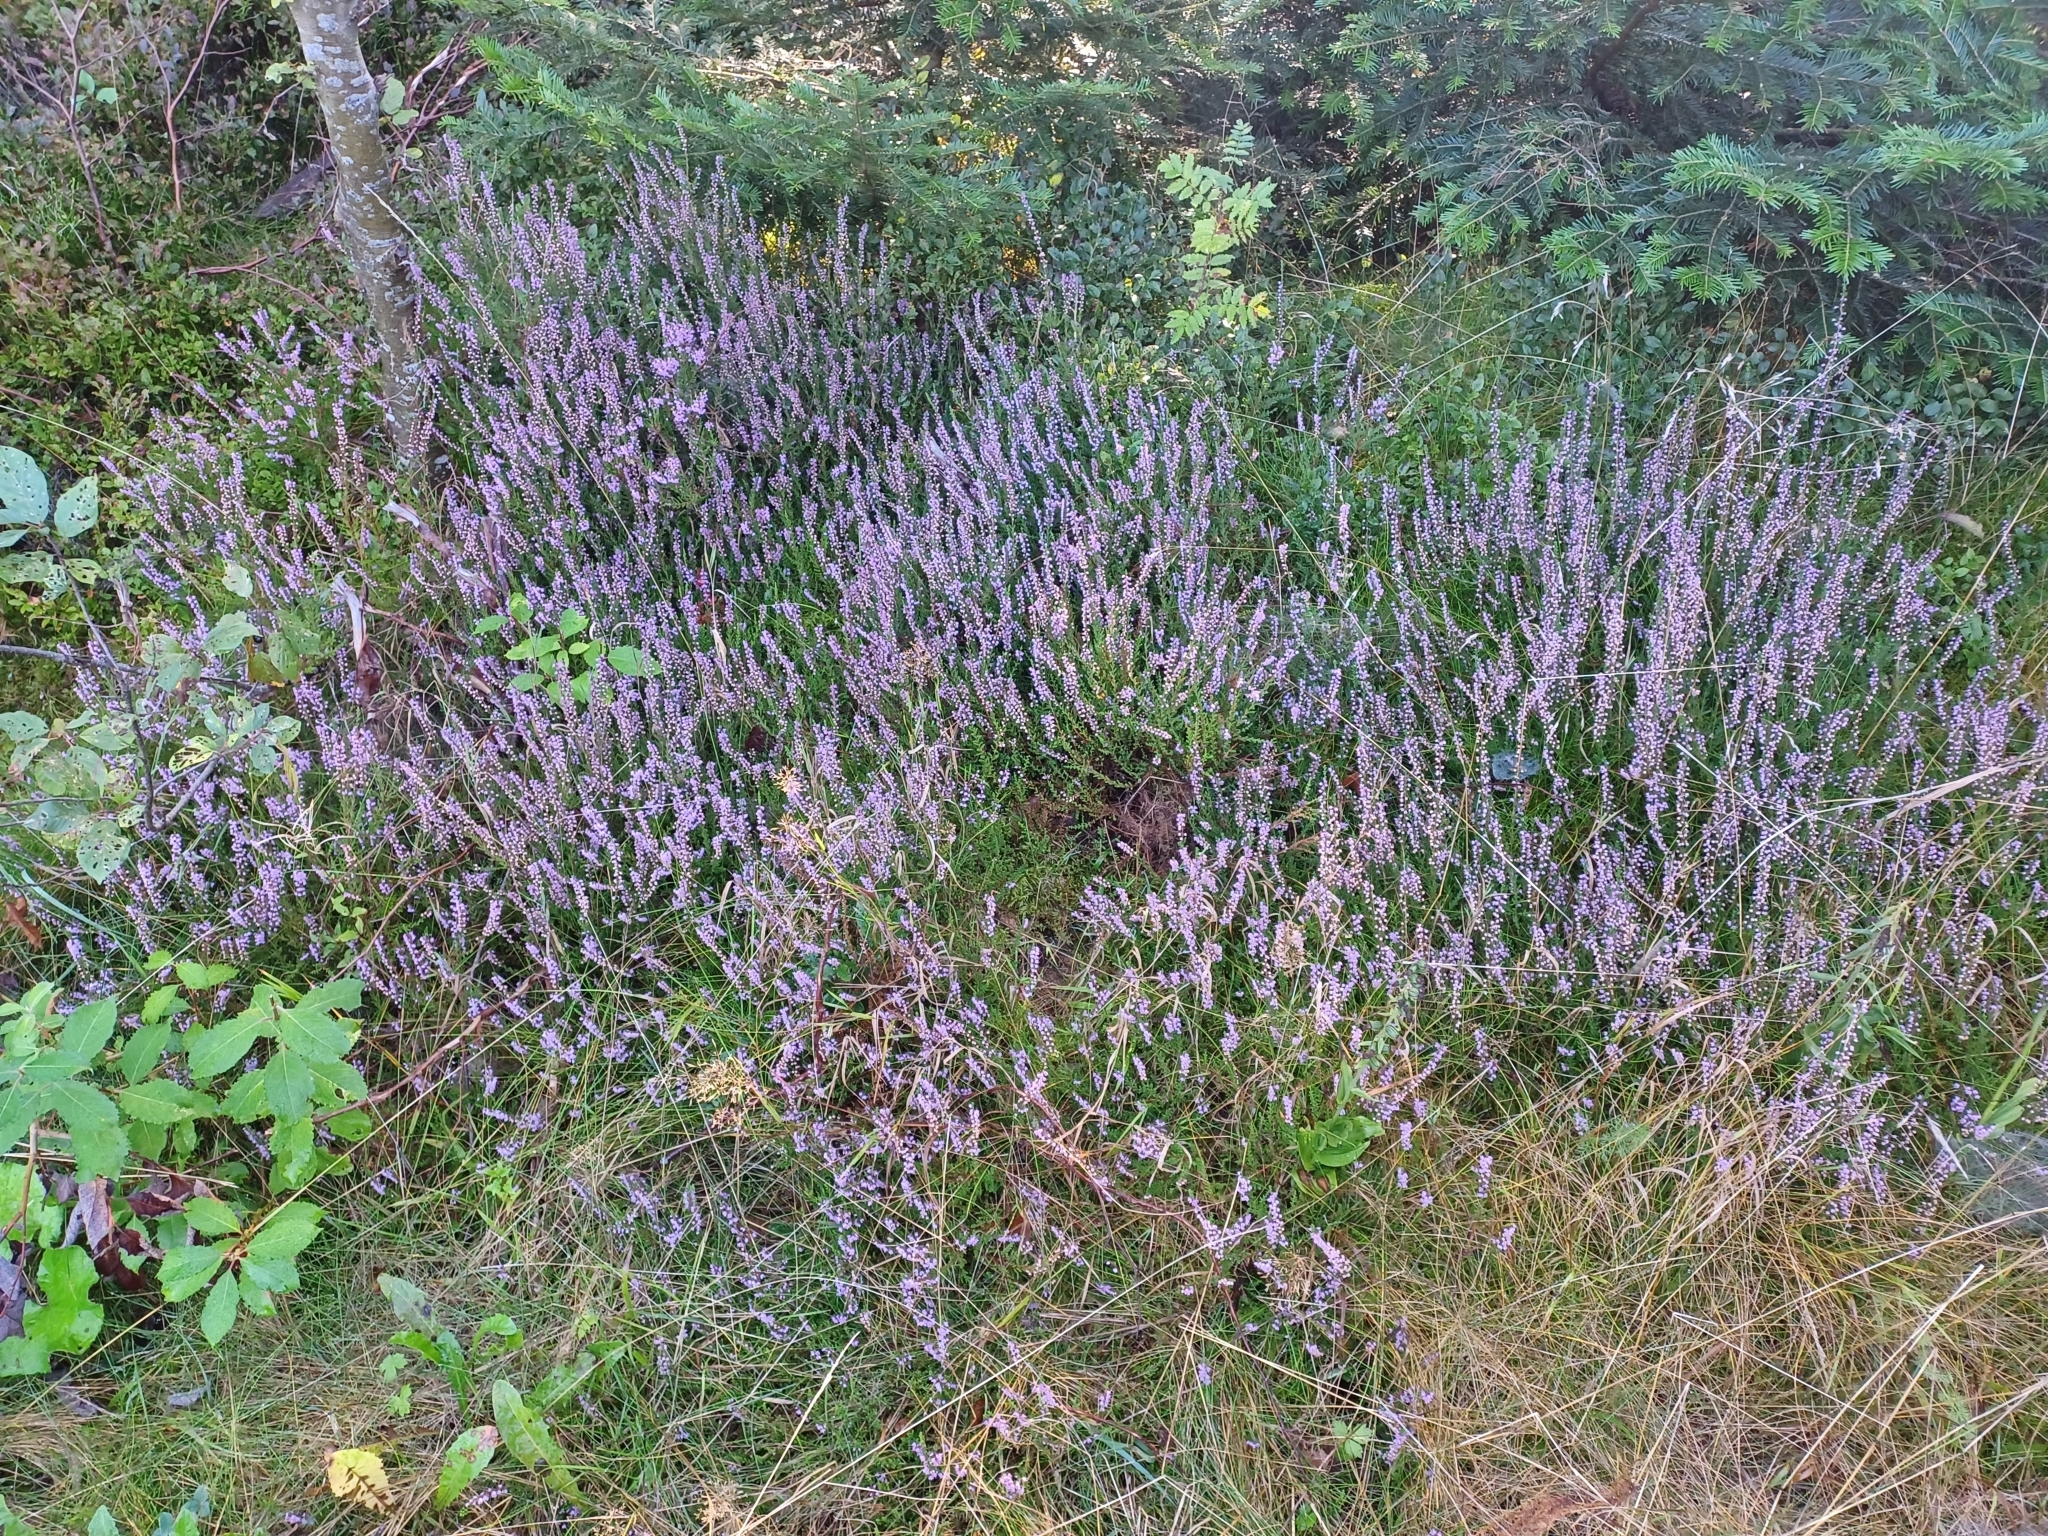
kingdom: Plantae
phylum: Tracheophyta
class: Magnoliopsida
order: Ericales
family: Ericaceae
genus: Calluna
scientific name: Calluna vulgaris
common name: Heather
